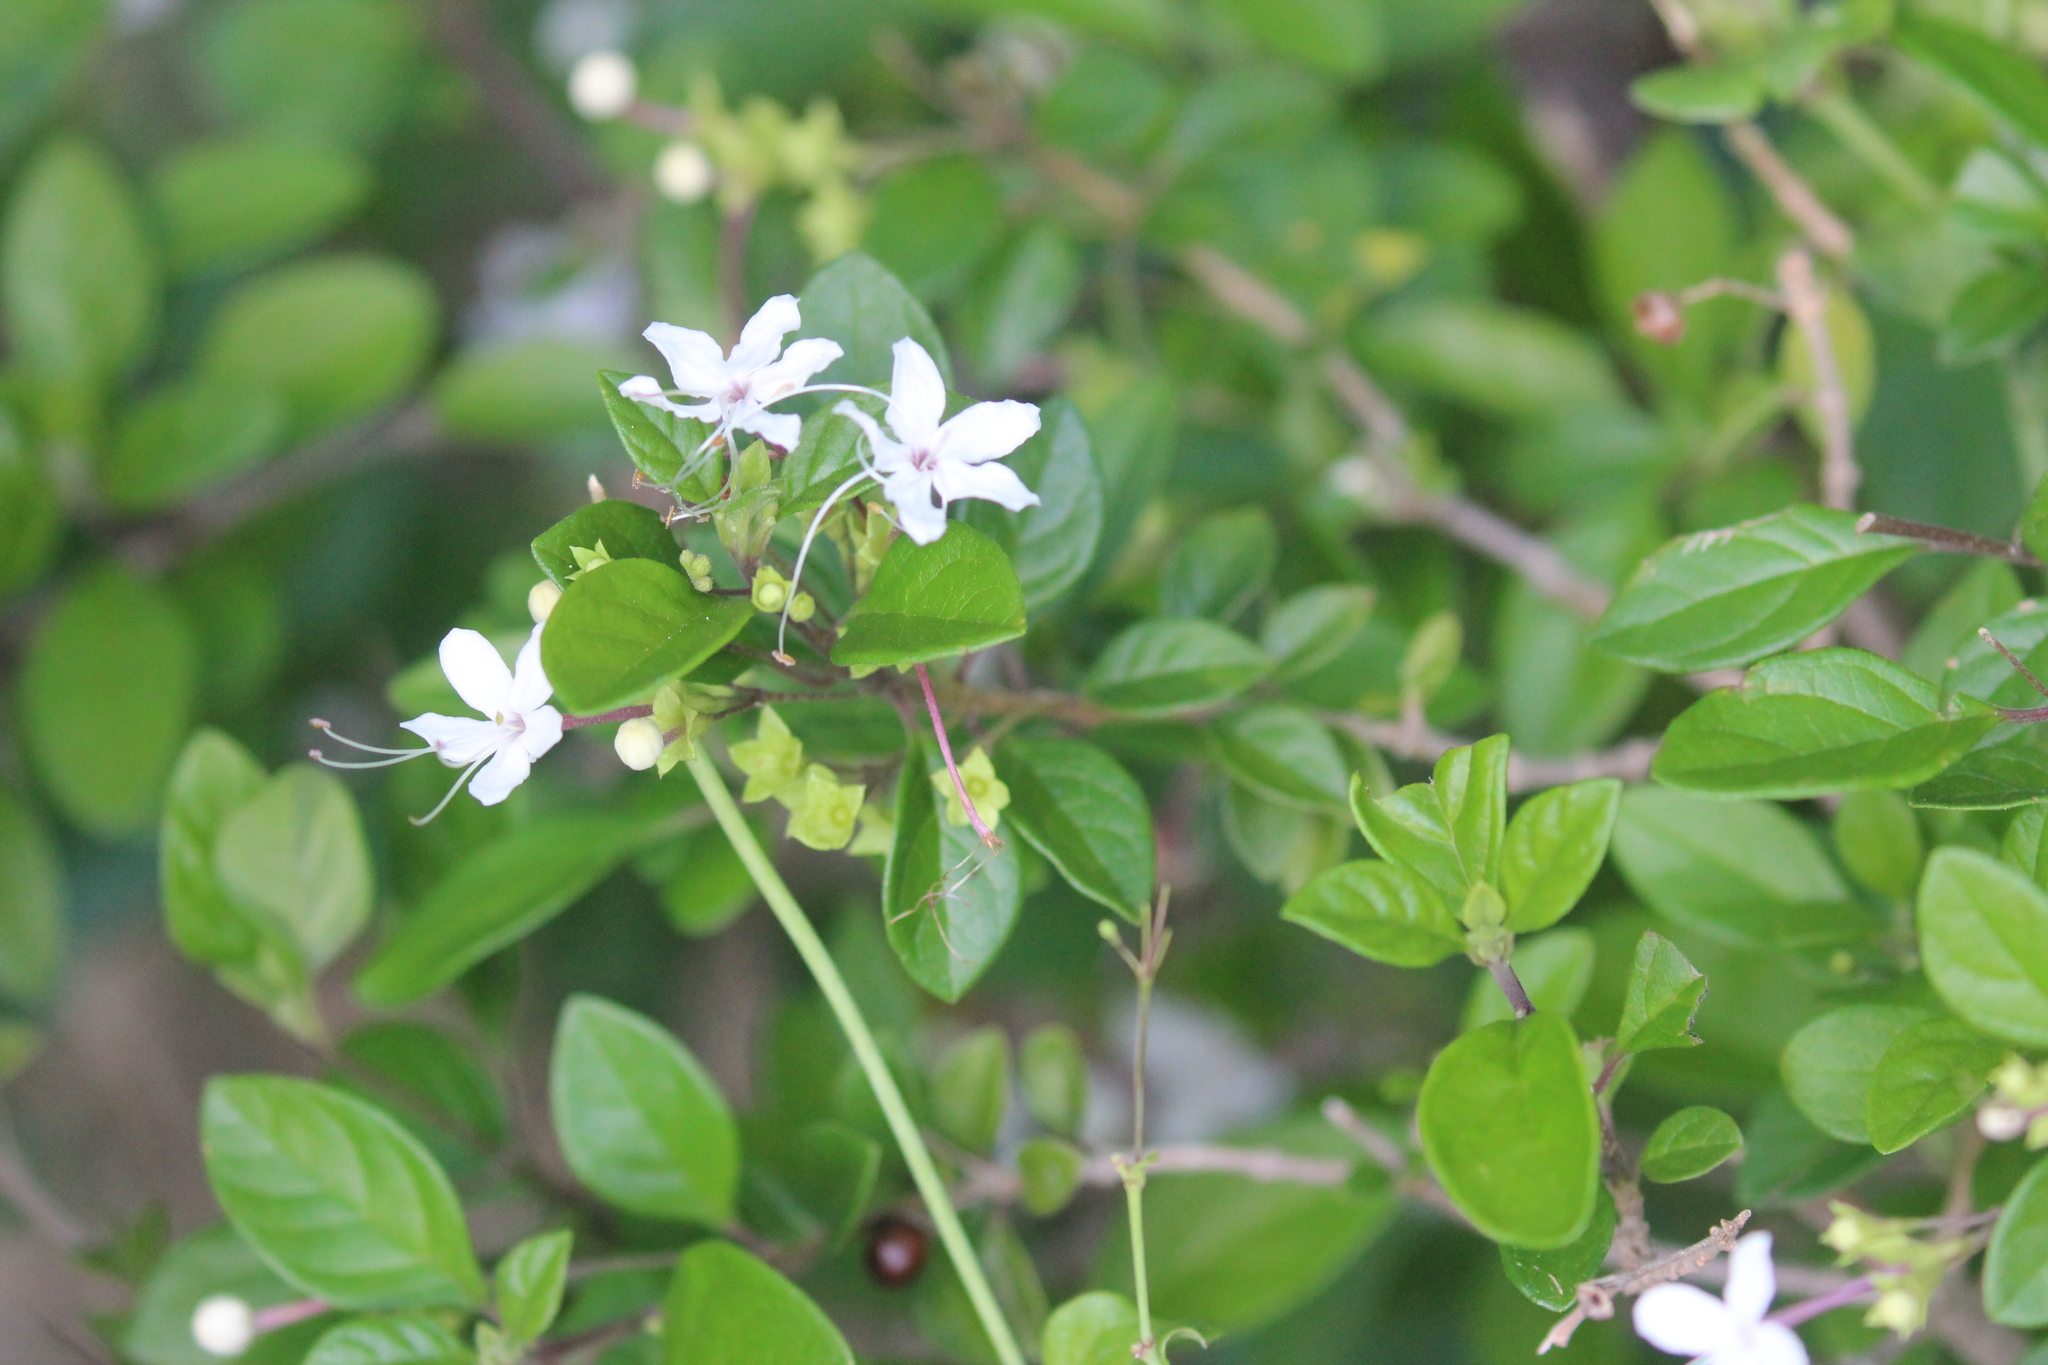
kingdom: Plantae
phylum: Tracheophyta
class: Magnoliopsida
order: Lamiales
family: Lamiaceae
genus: Volkameria
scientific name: Volkameria mollis
